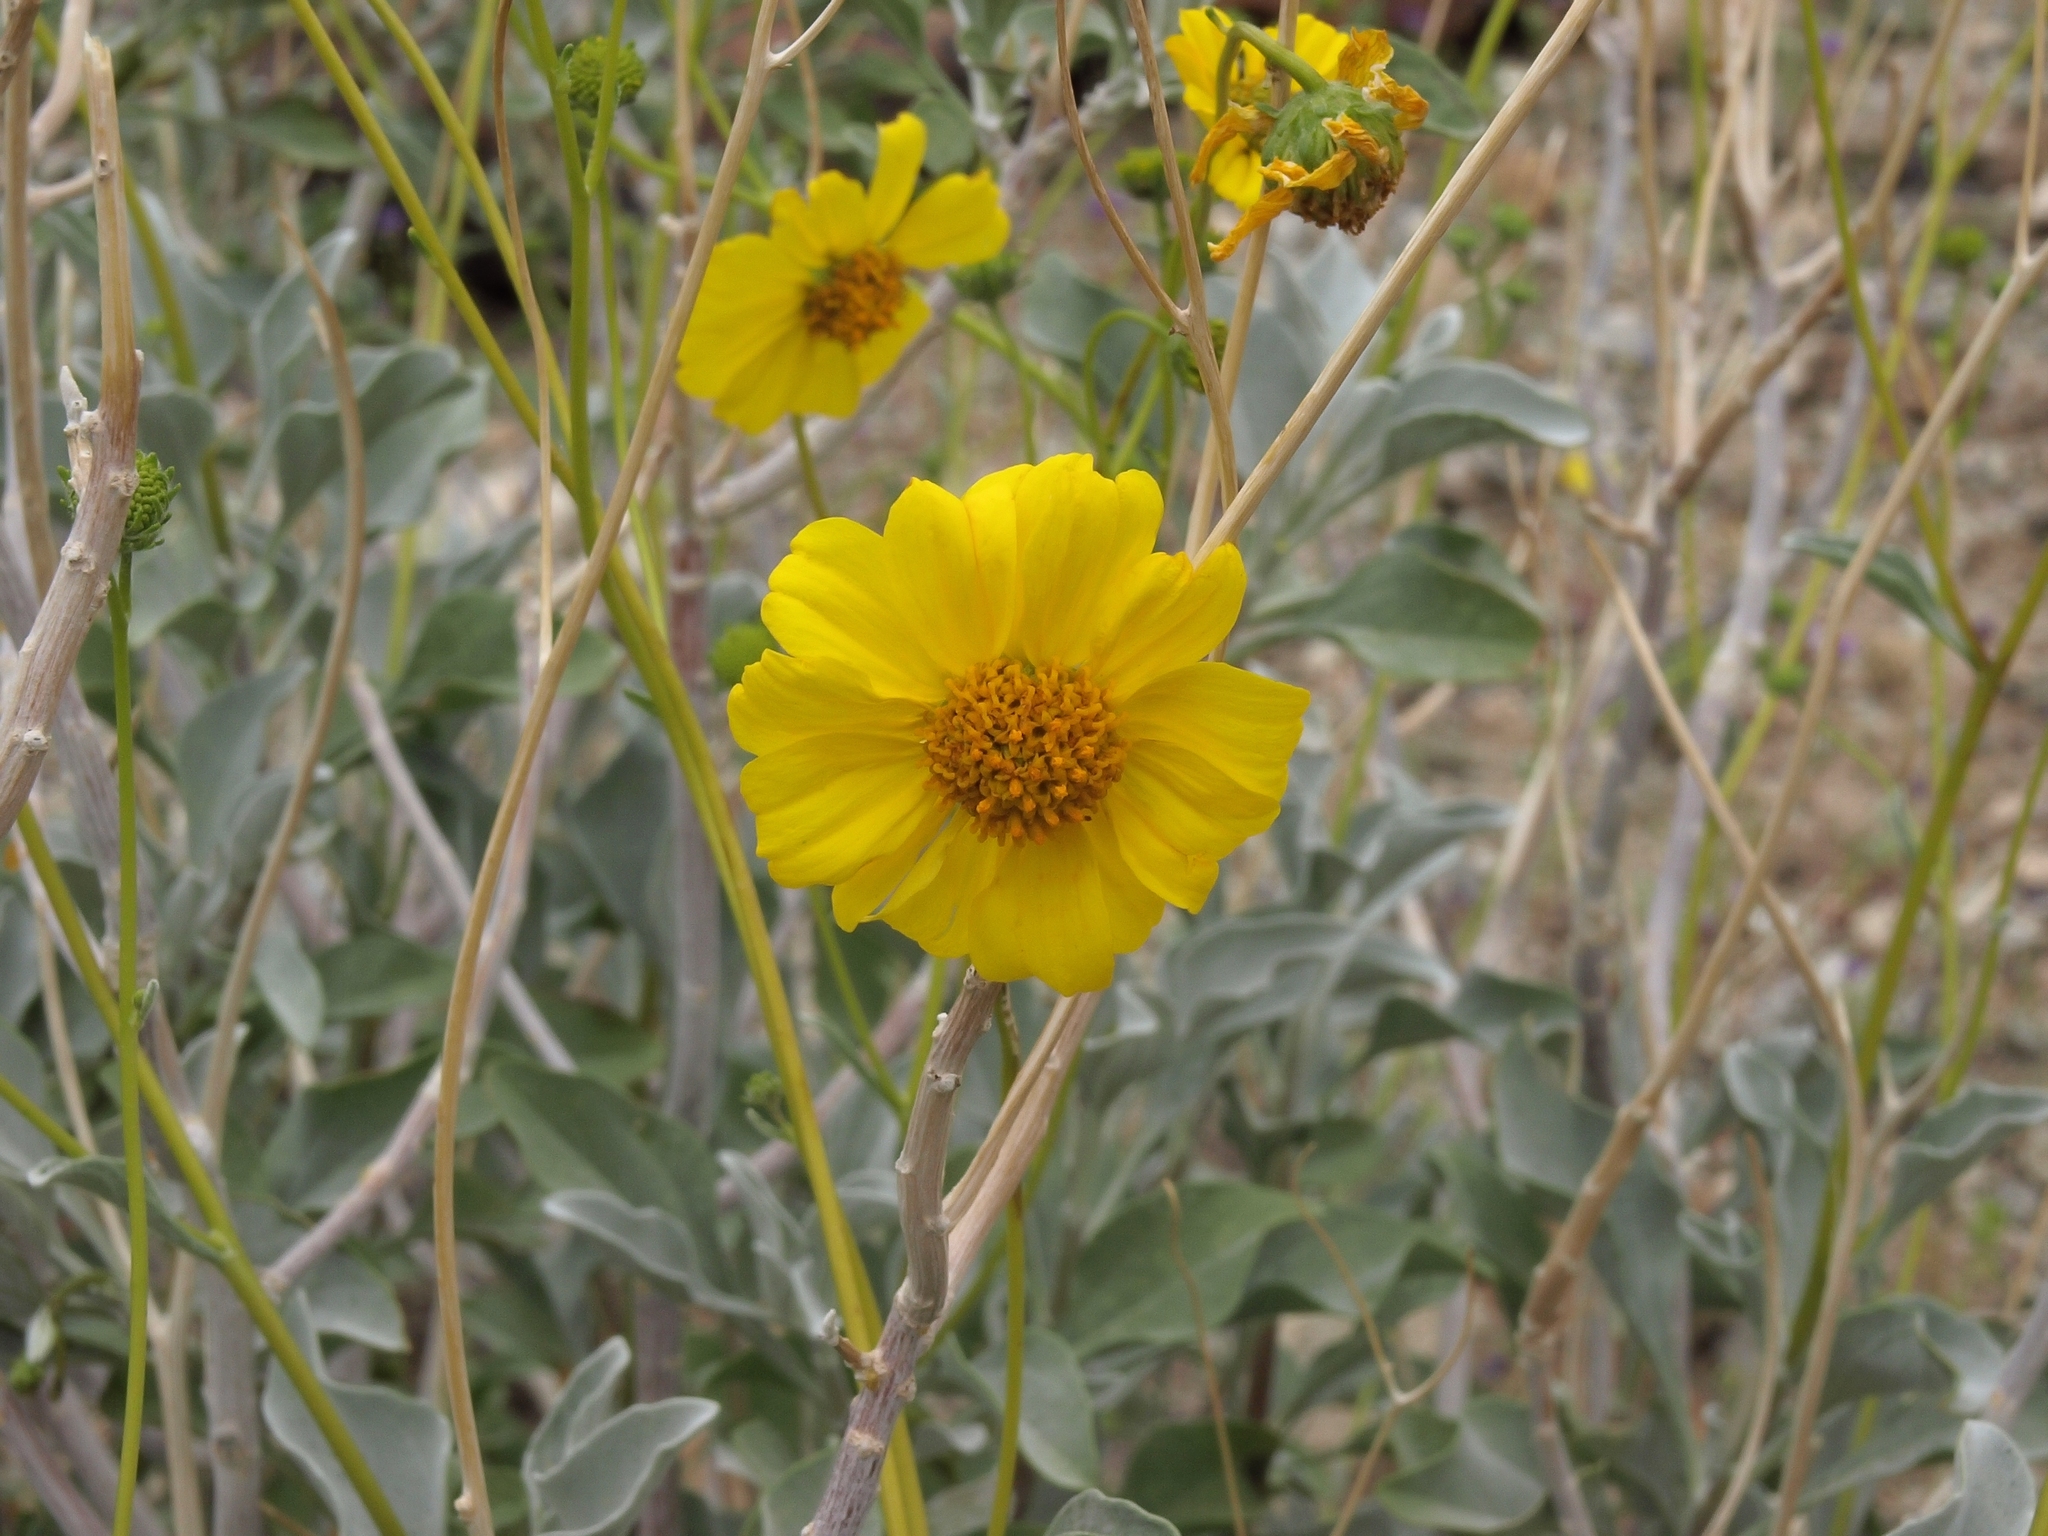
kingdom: Plantae
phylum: Tracheophyta
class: Magnoliopsida
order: Asterales
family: Asteraceae
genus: Encelia
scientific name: Encelia farinosa
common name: Brittlebush
